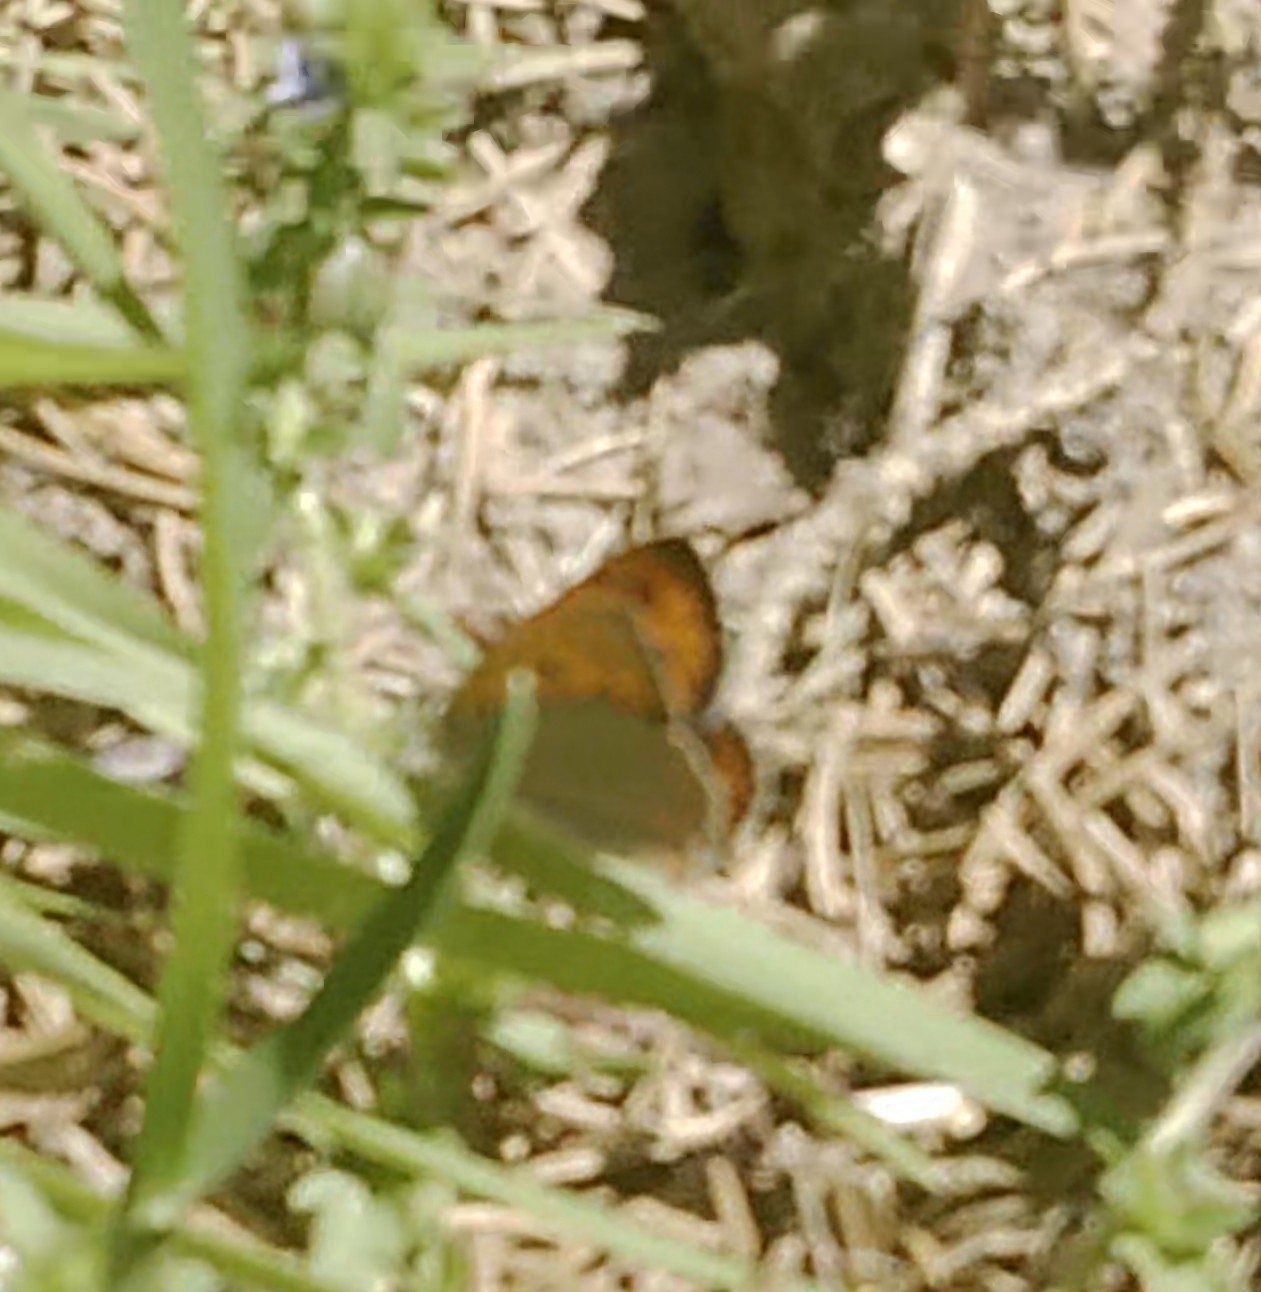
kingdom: Animalia
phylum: Arthropoda
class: Insecta
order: Lepidoptera
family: Lycaenidae
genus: Lycaena
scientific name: Lycaena phlaeas
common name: Small copper
